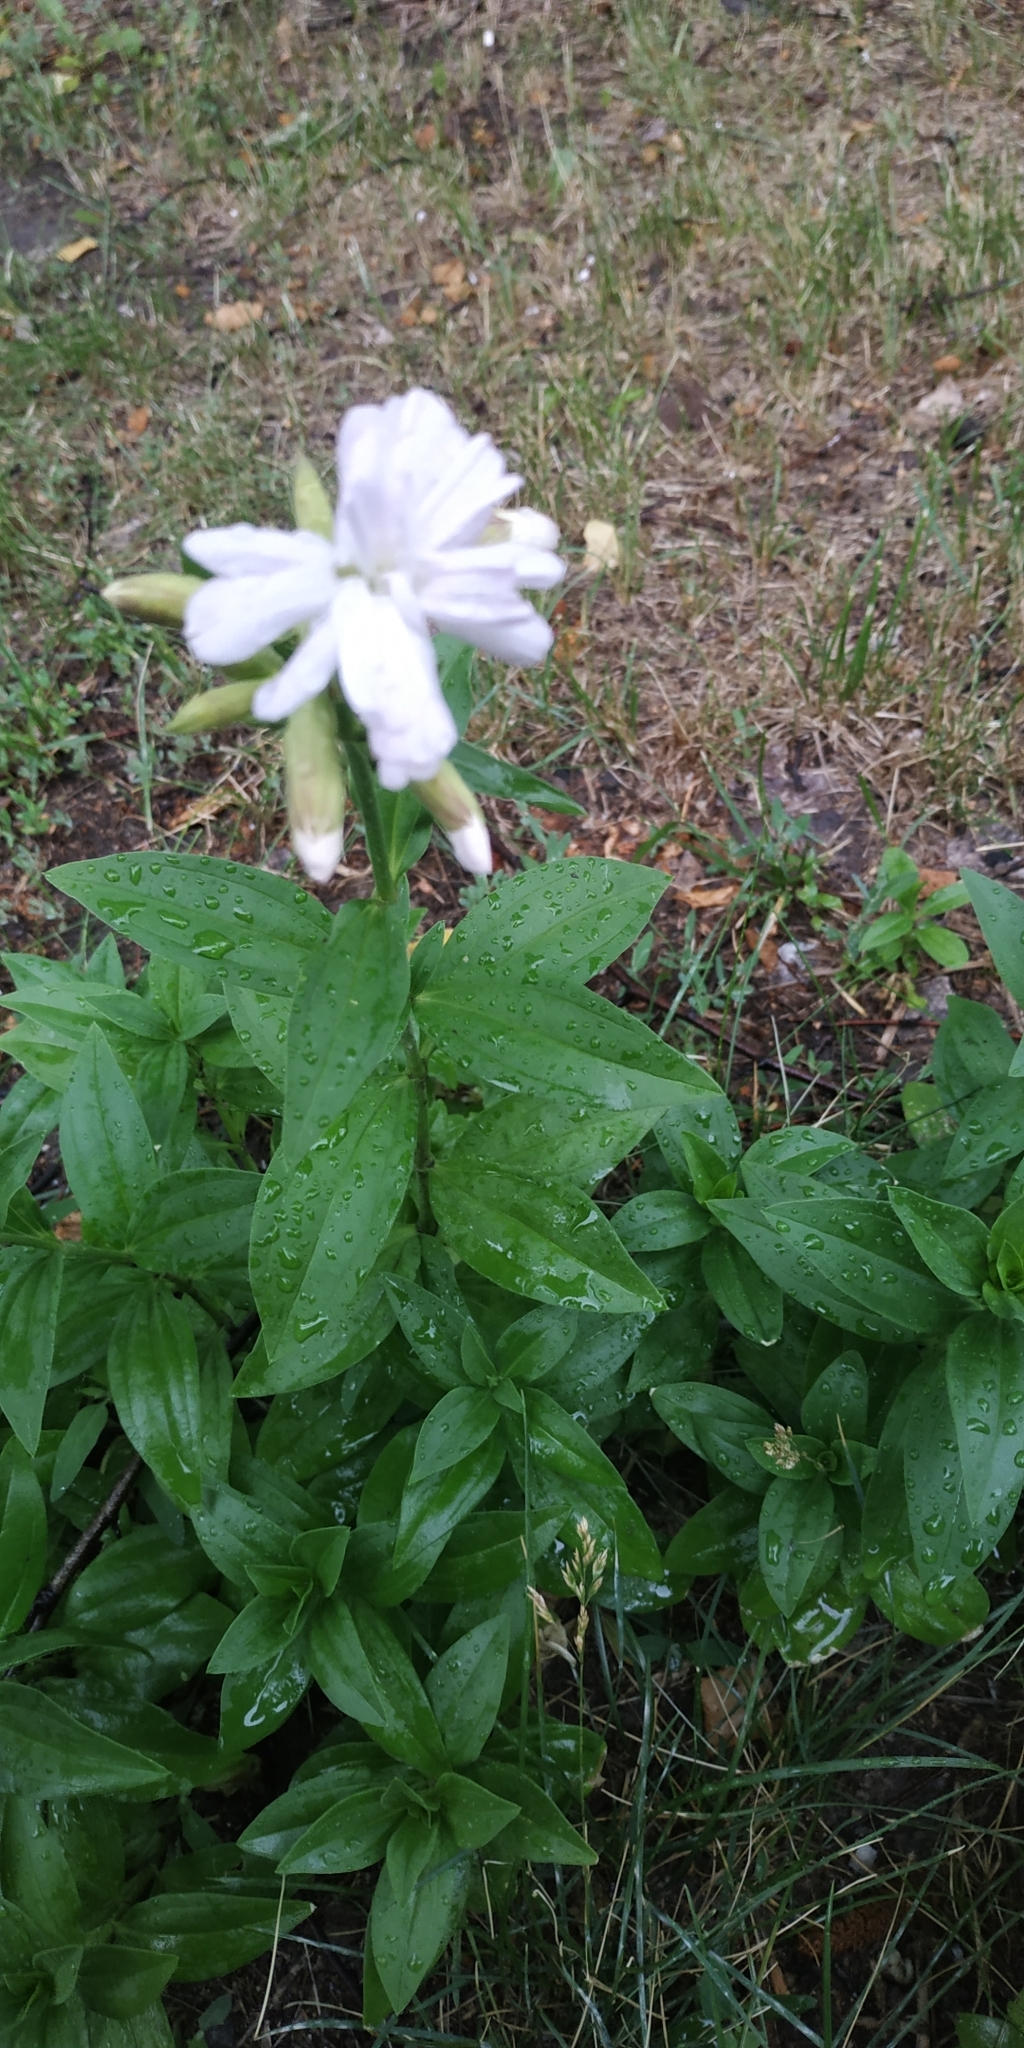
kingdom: Plantae
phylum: Tracheophyta
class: Magnoliopsida
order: Caryophyllales
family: Caryophyllaceae
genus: Saponaria
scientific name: Saponaria officinalis
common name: Soapwort
